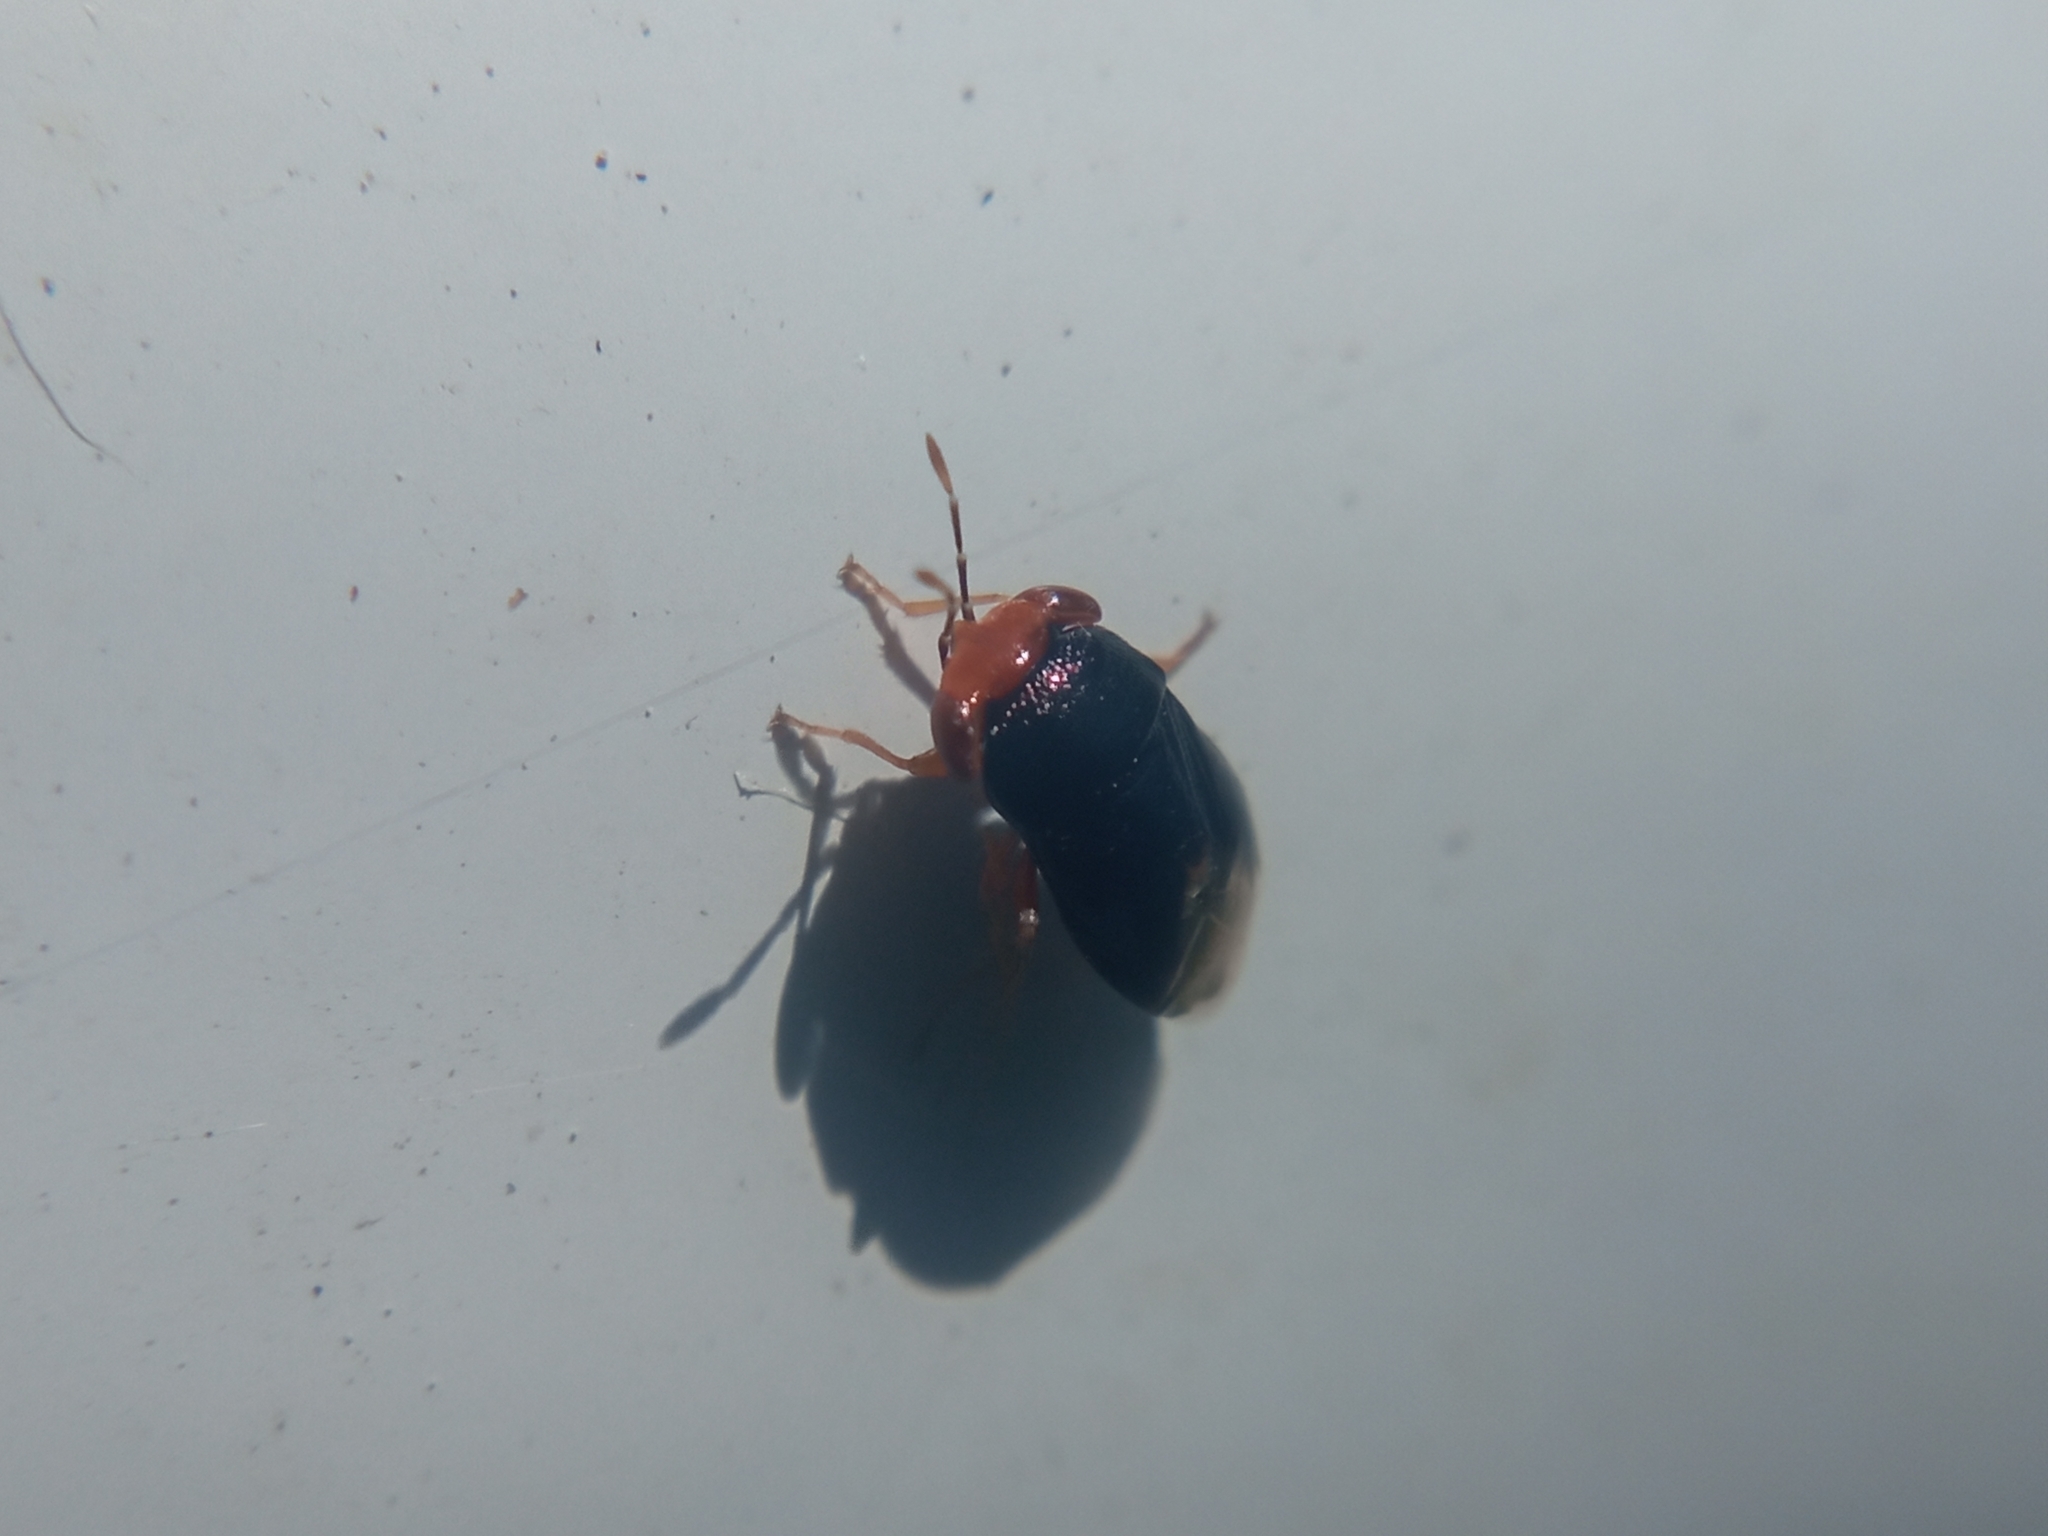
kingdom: Animalia
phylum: Arthropoda
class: Insecta
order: Hemiptera
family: Geocoridae
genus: Geocoris
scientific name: Geocoris erythrocephala
